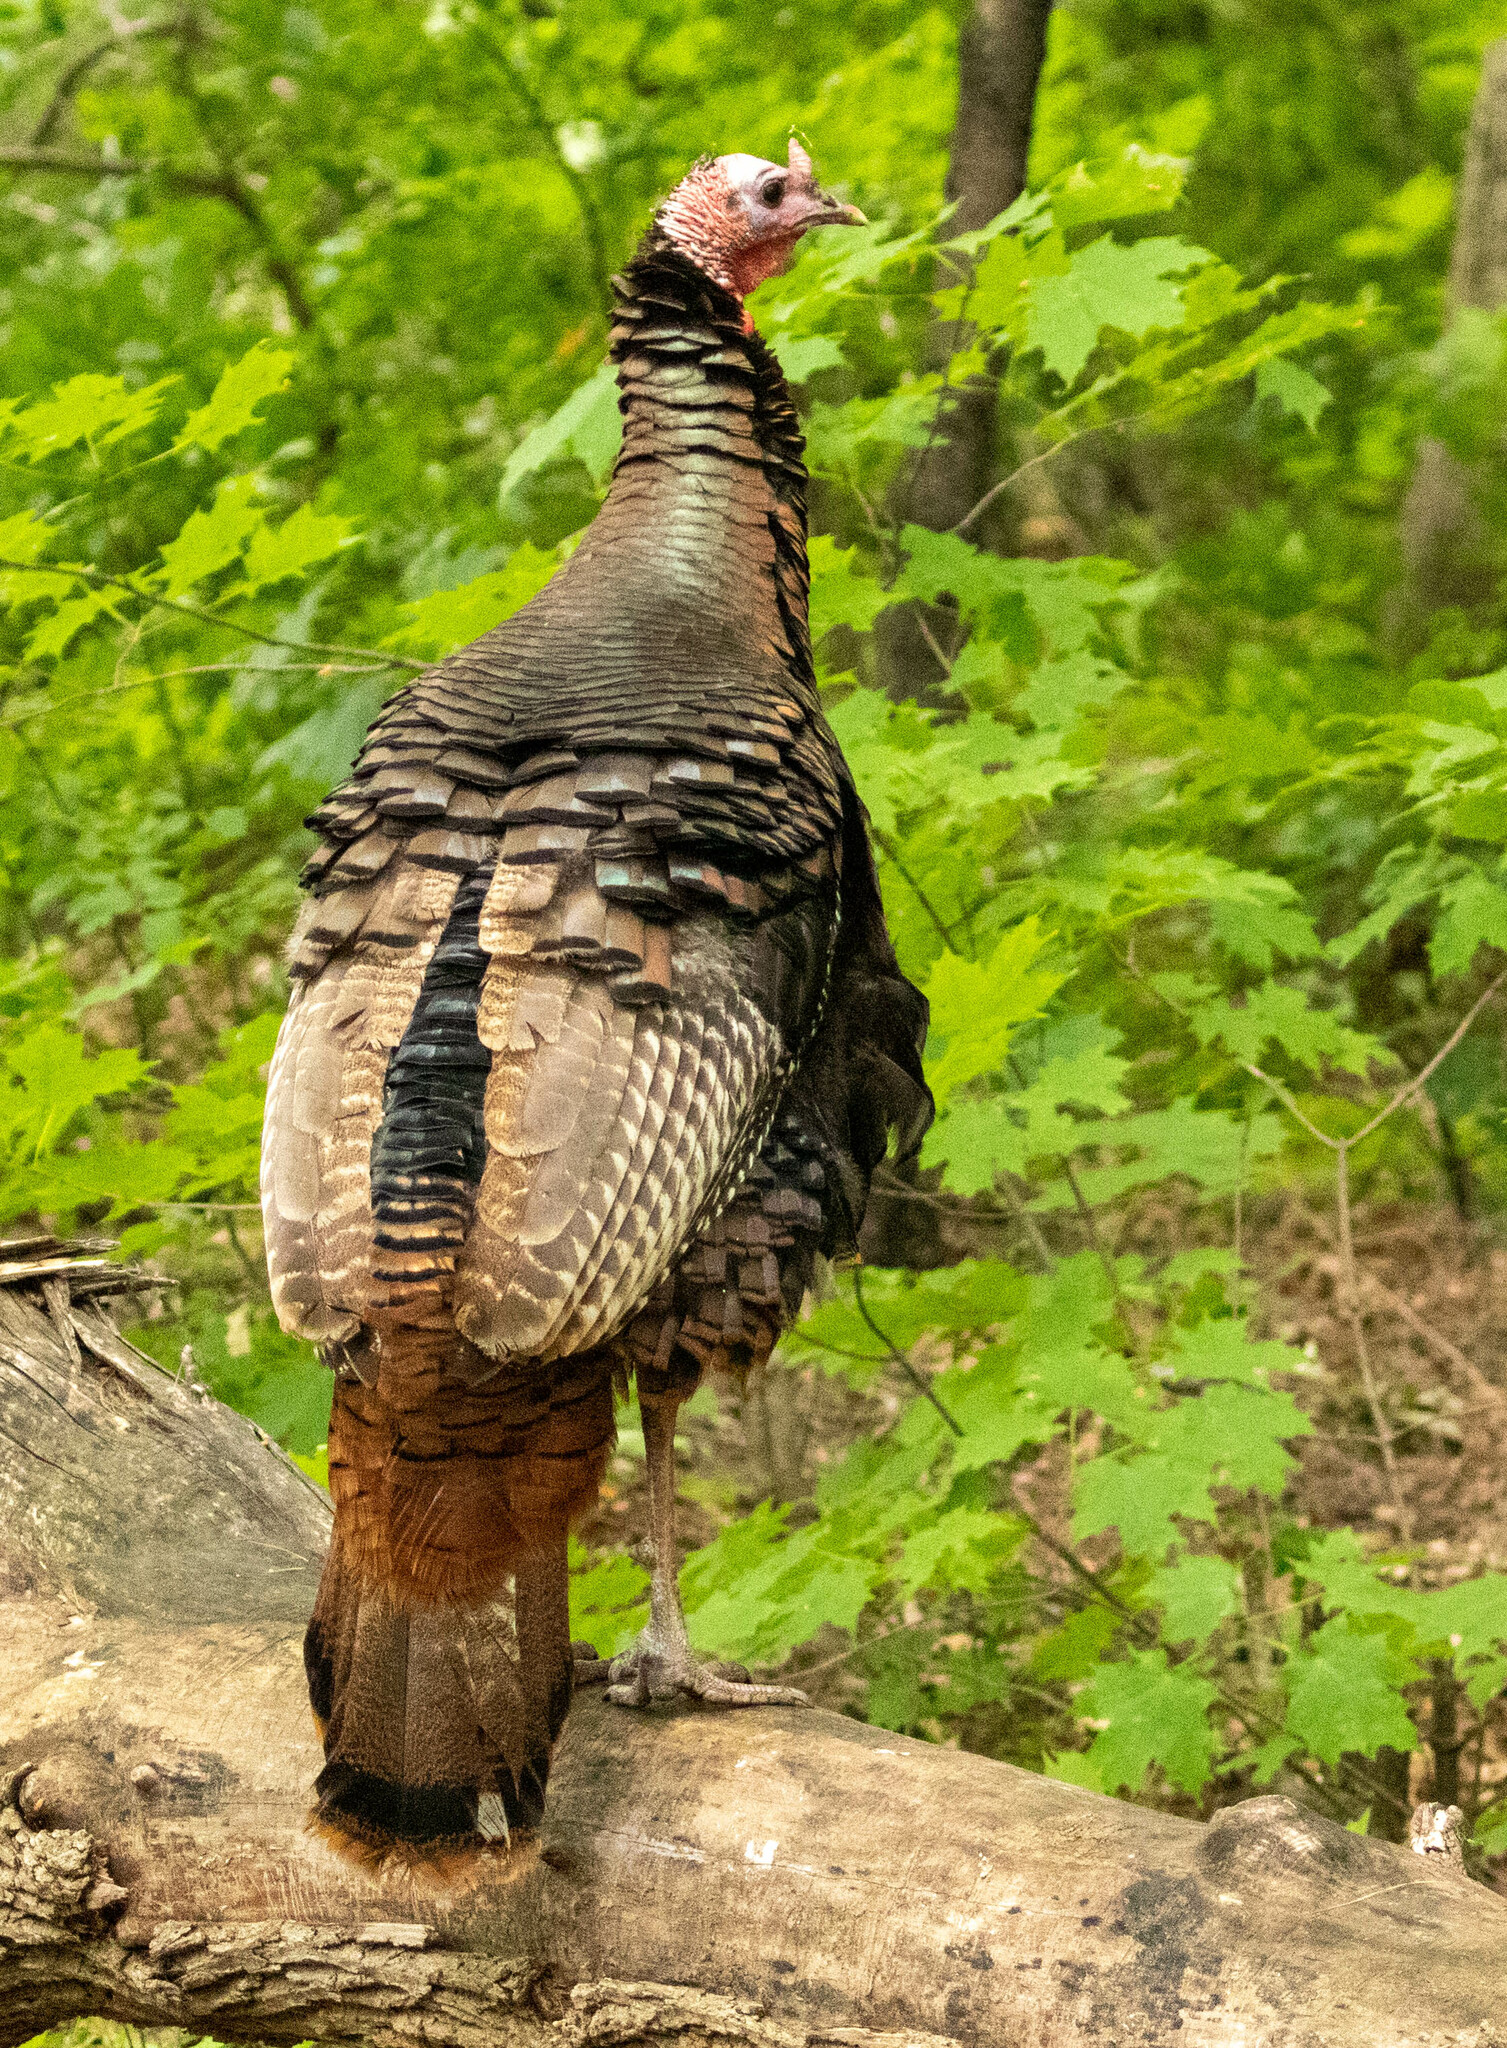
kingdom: Animalia
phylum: Chordata
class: Aves
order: Galliformes
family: Phasianidae
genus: Meleagris
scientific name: Meleagris gallopavo
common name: Wild turkey
